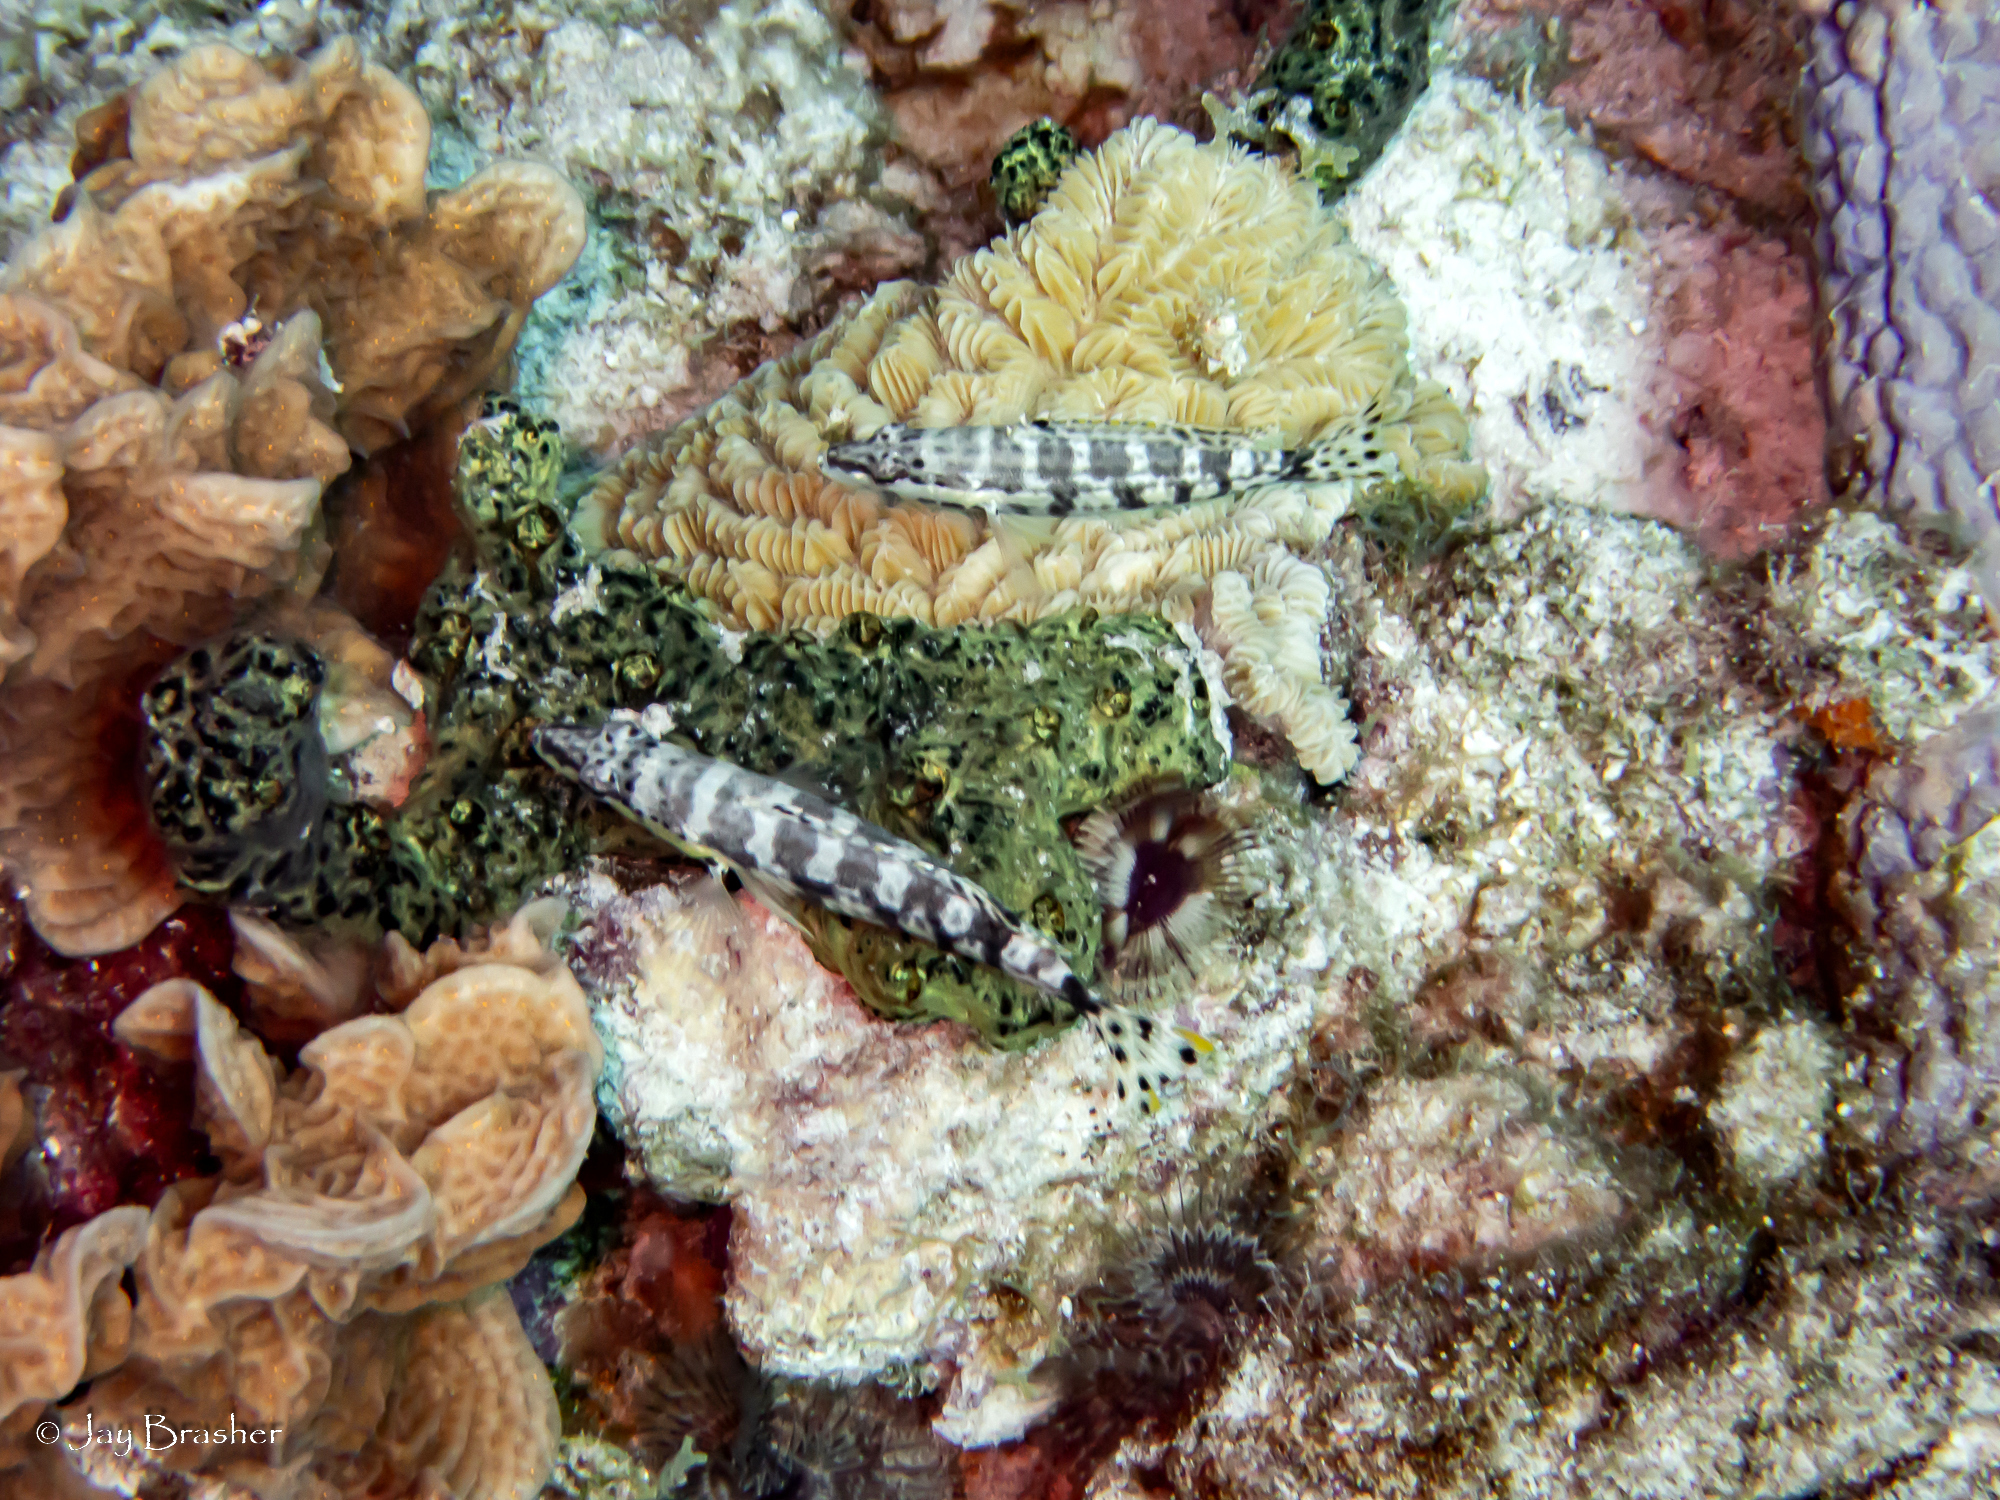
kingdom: Animalia
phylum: Porifera
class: Demospongiae
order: Poecilosclerida
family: Iotrochotidae
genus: Iotrochota
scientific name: Iotrochota birotulata
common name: Purple bleeding sponge
